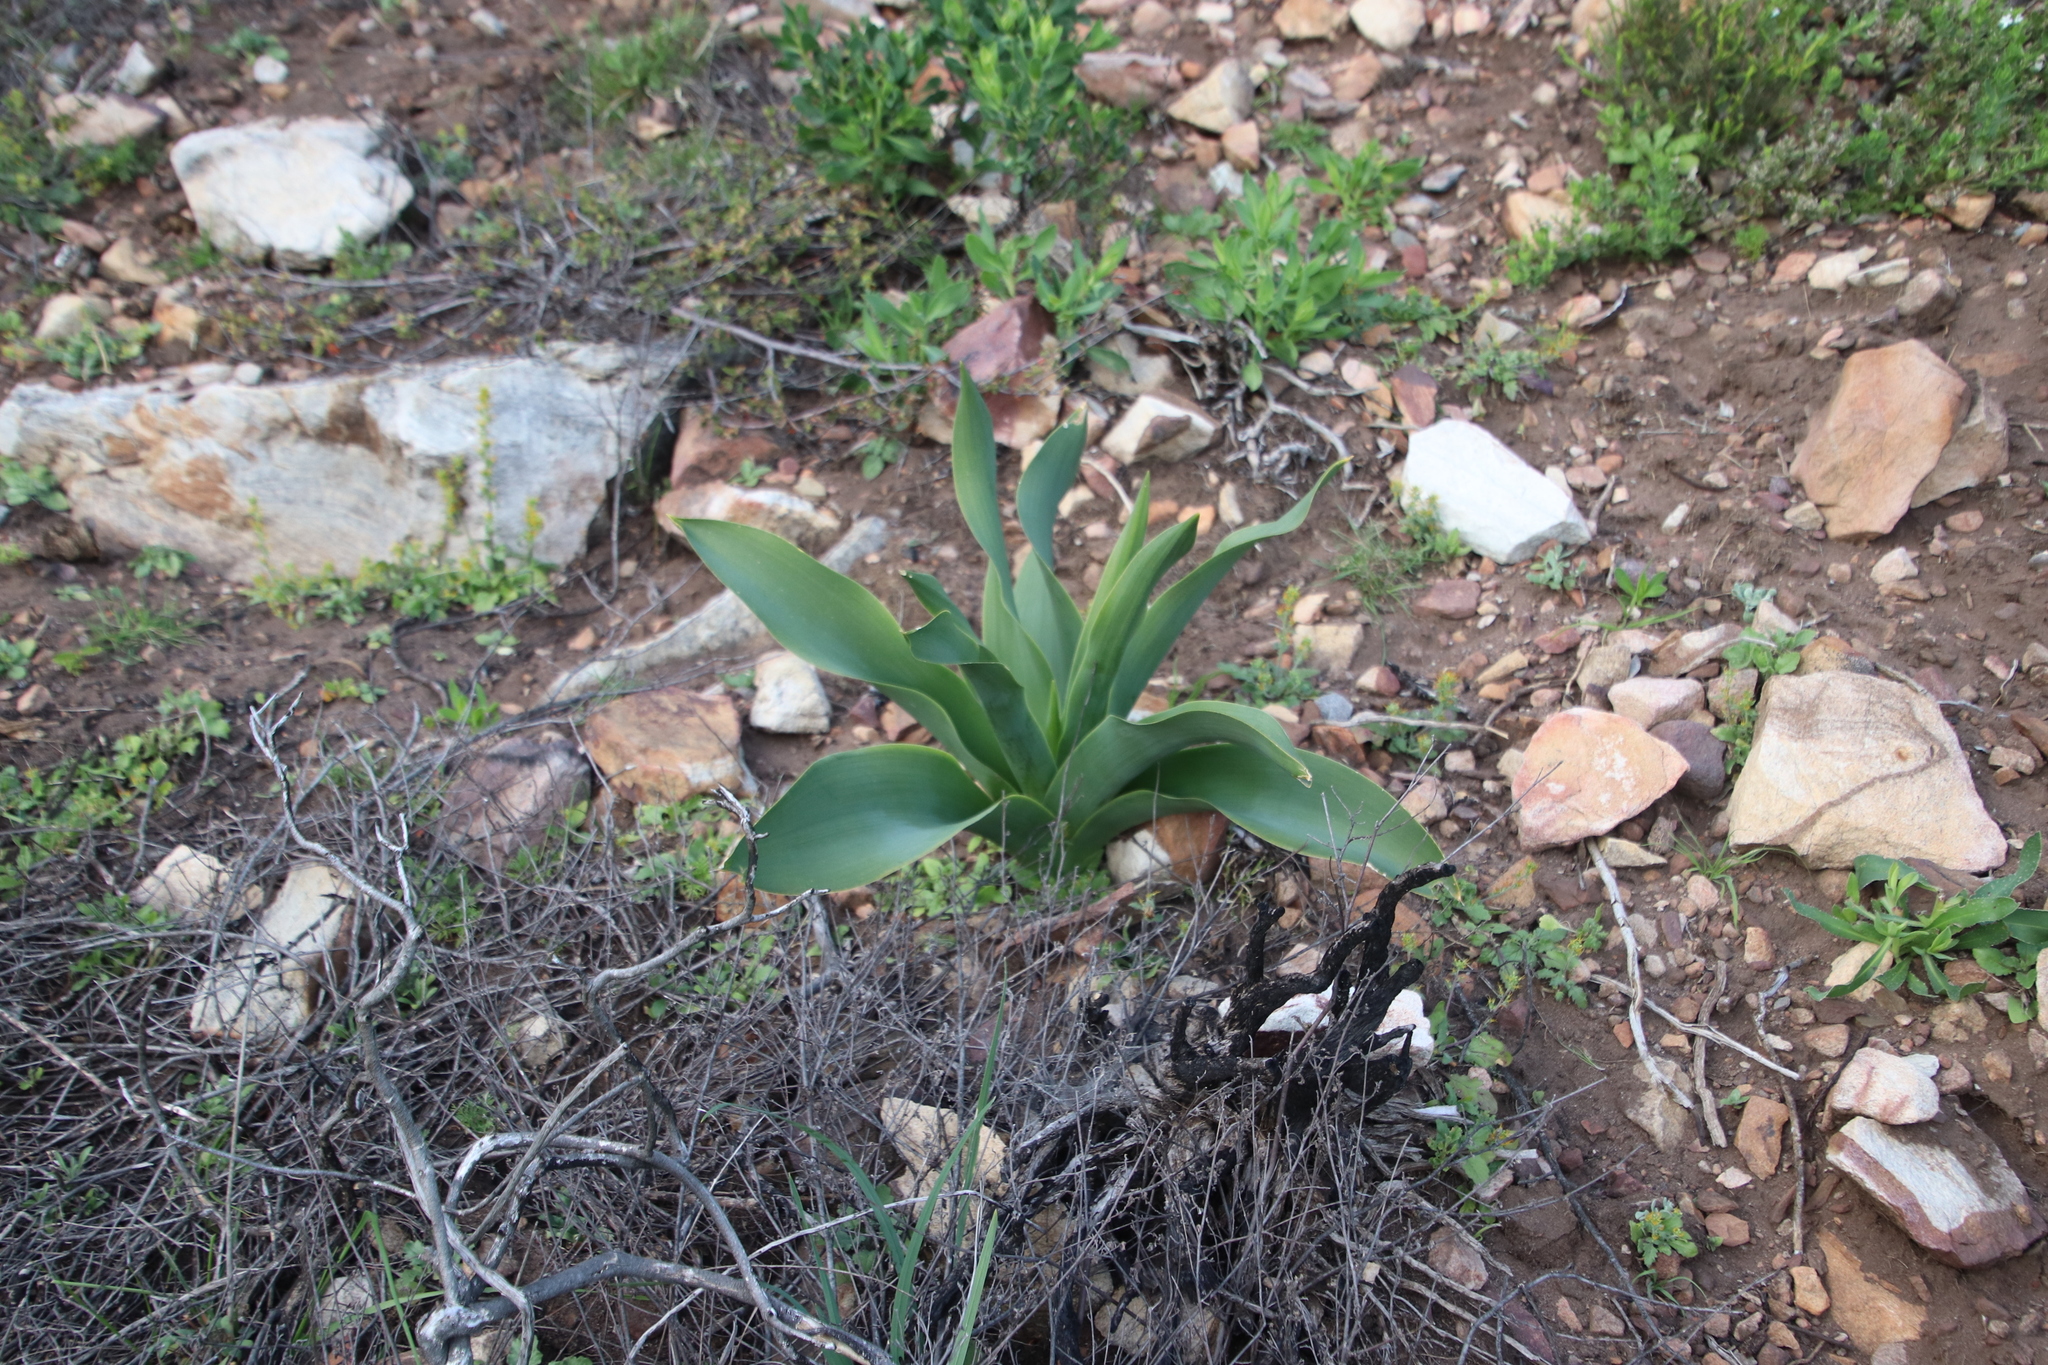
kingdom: Plantae
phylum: Tracheophyta
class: Liliopsida
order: Asparagales
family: Asparagaceae
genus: Drimia
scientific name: Drimia capensis
